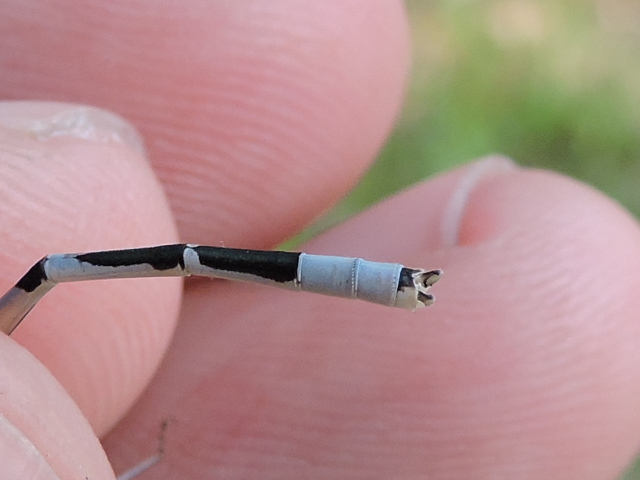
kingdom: Animalia
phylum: Arthropoda
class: Insecta
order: Odonata
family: Coenagrionidae
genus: Enallagma
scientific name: Enallagma civile
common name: Damselfly
